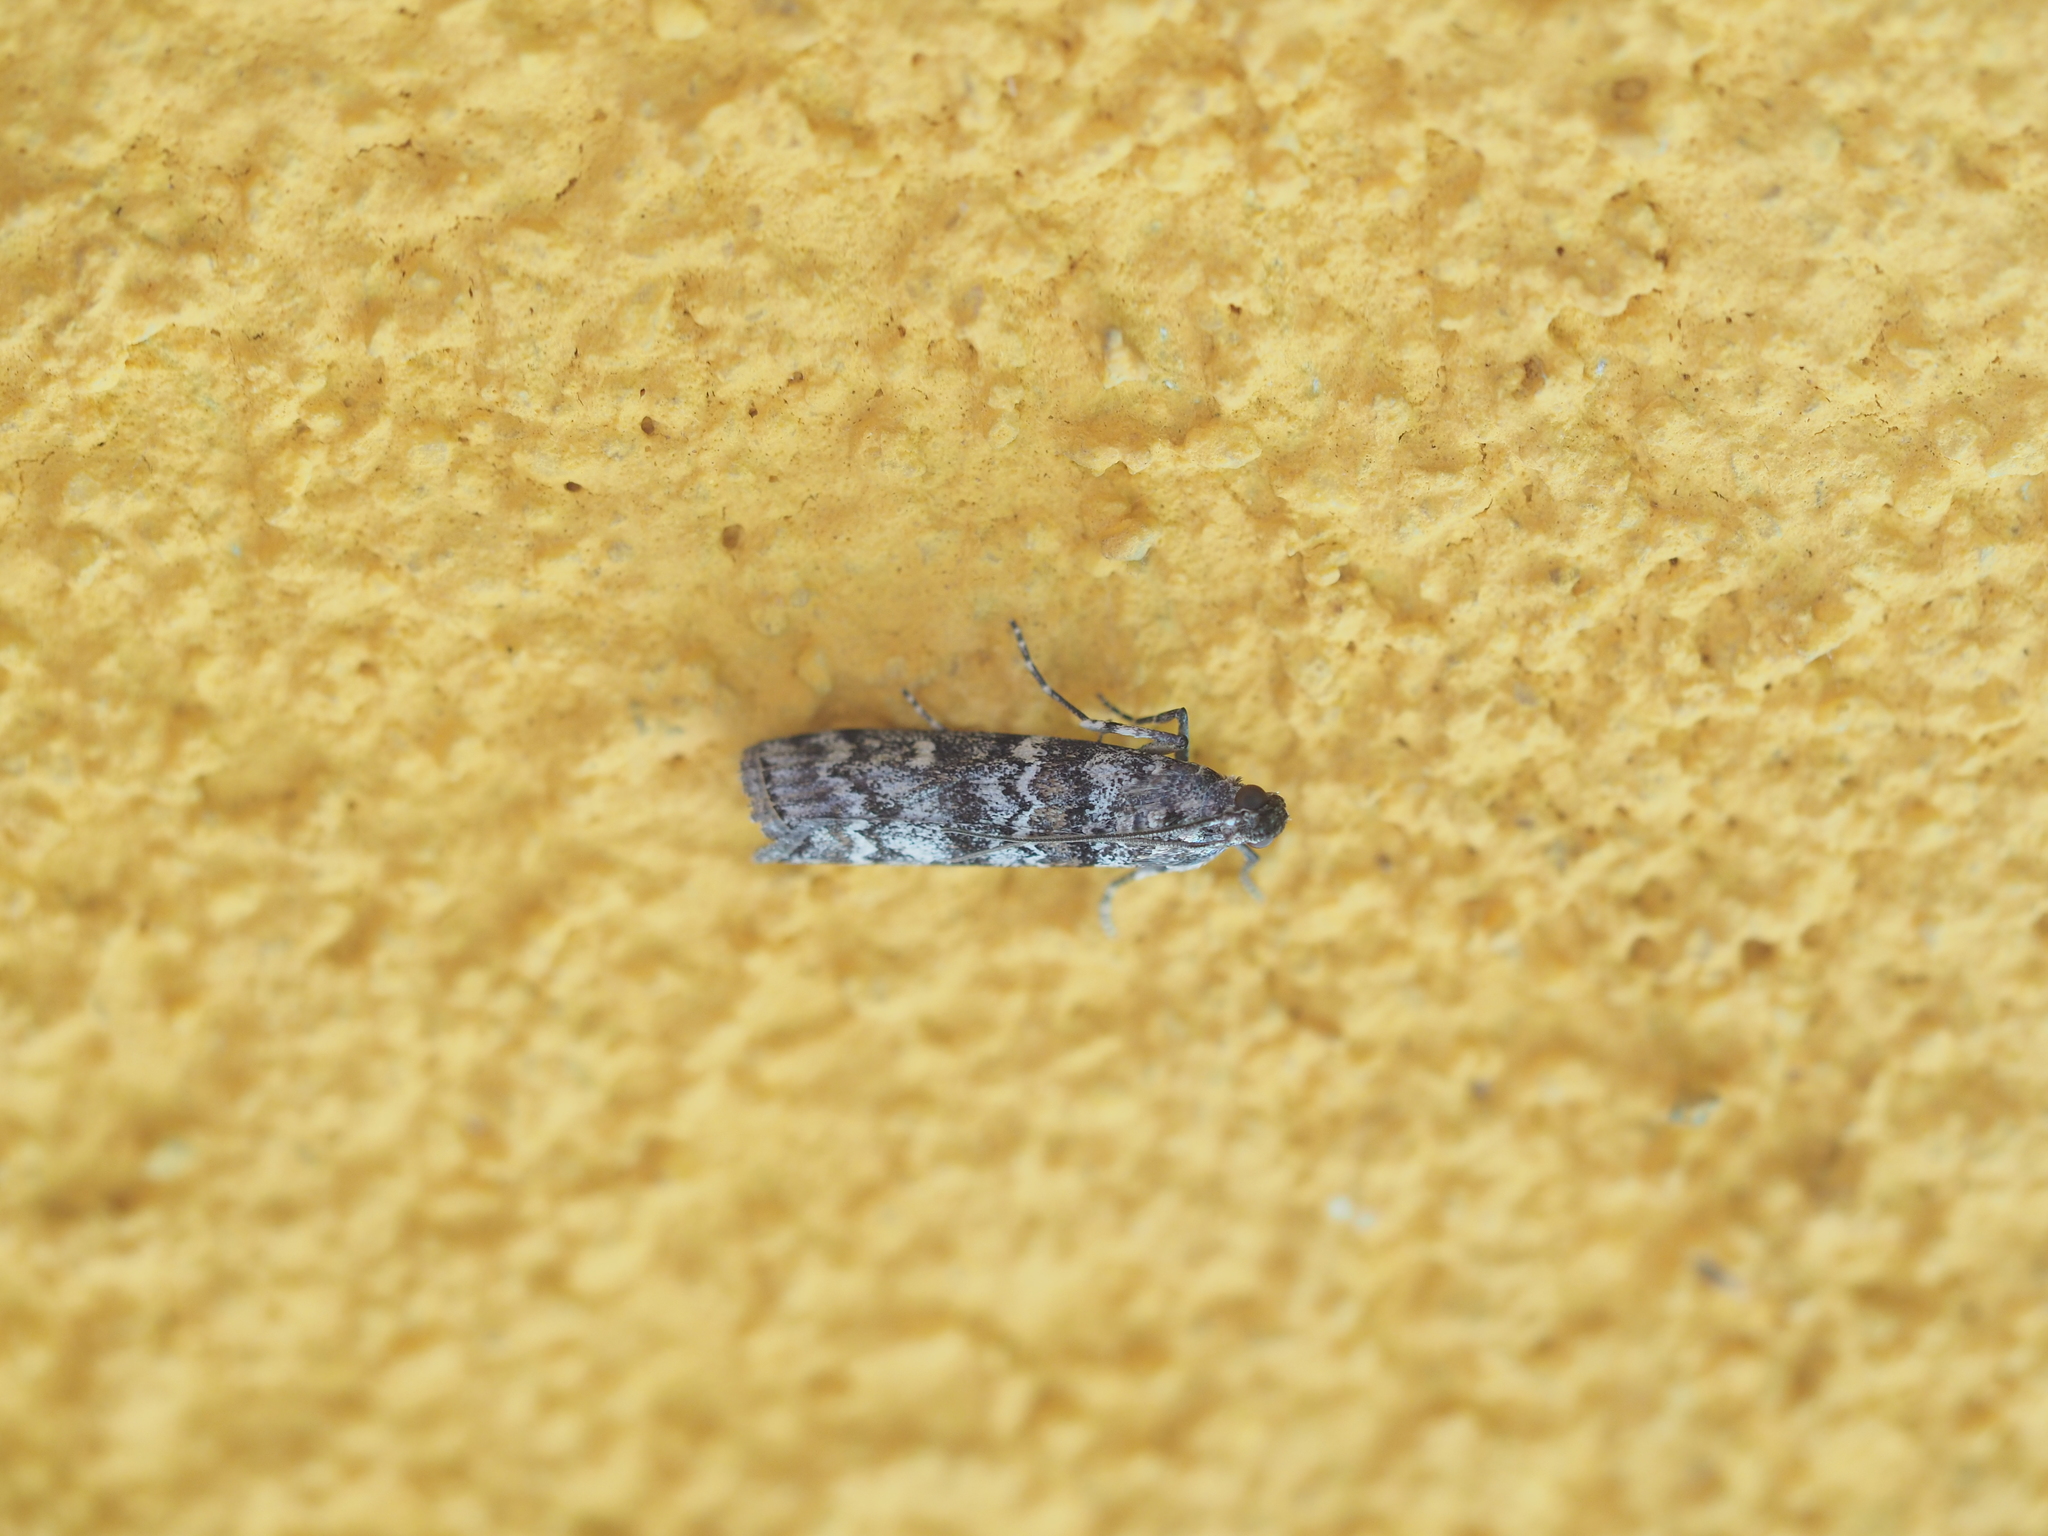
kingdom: Animalia
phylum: Arthropoda
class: Insecta
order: Lepidoptera
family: Pyralidae
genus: Dioryctria
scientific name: Dioryctria abietella
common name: Dark pine knot-horn
